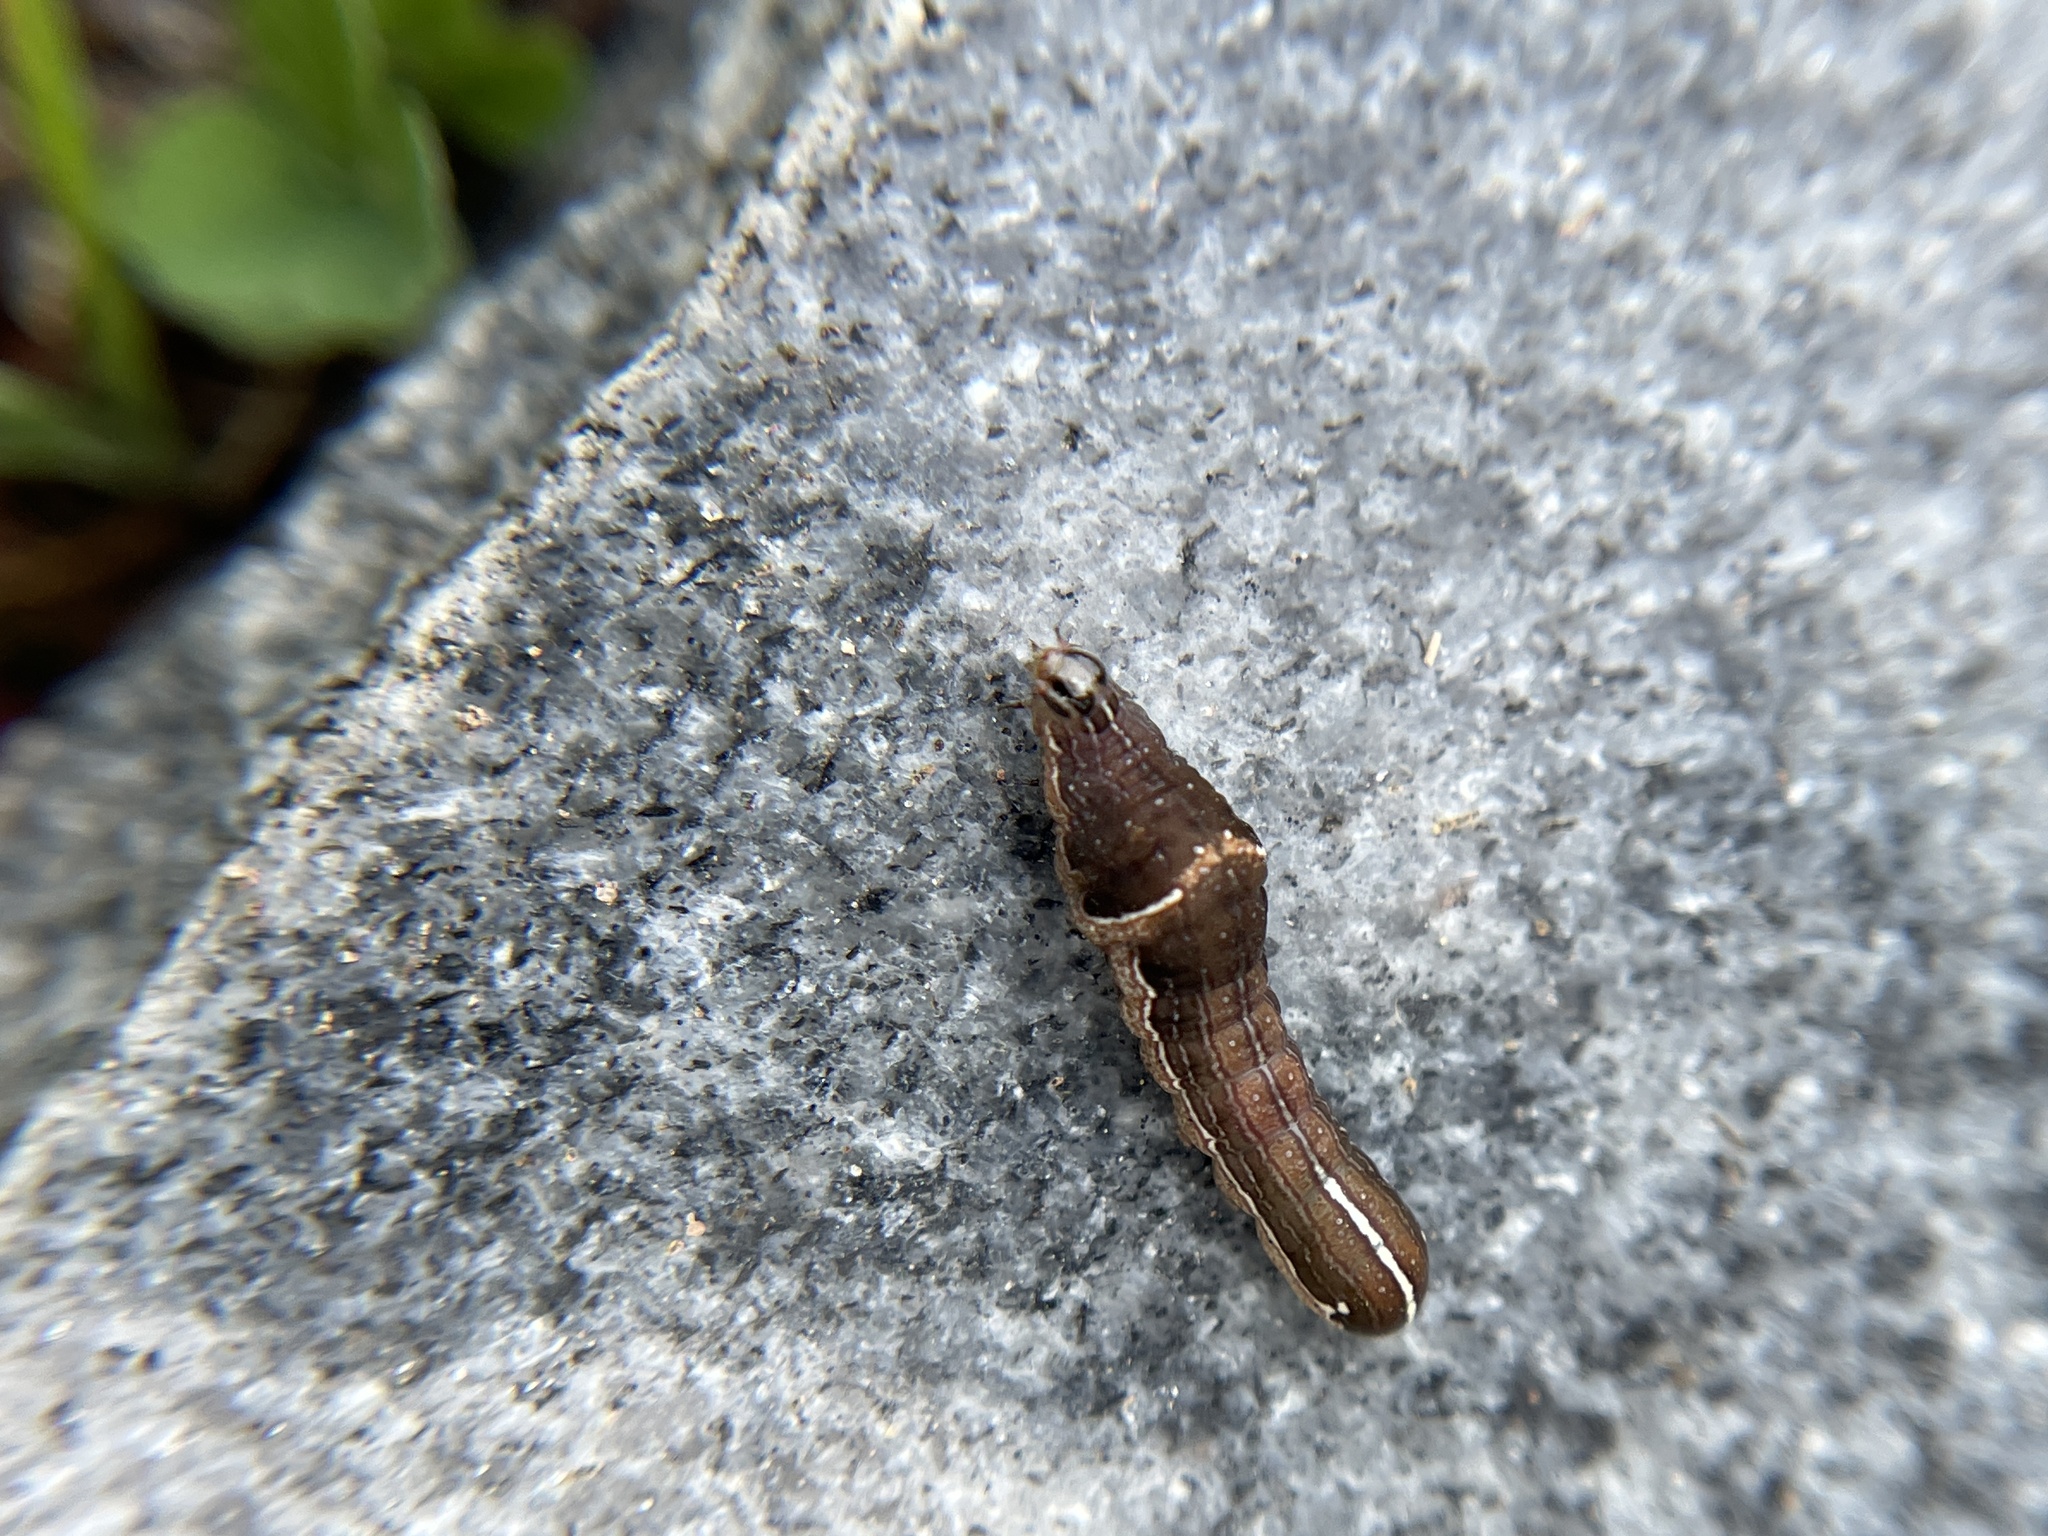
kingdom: Animalia
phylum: Arthropoda
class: Insecta
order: Lepidoptera
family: Noctuidae
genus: Galgula
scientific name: Galgula partita
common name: Wedgeling
